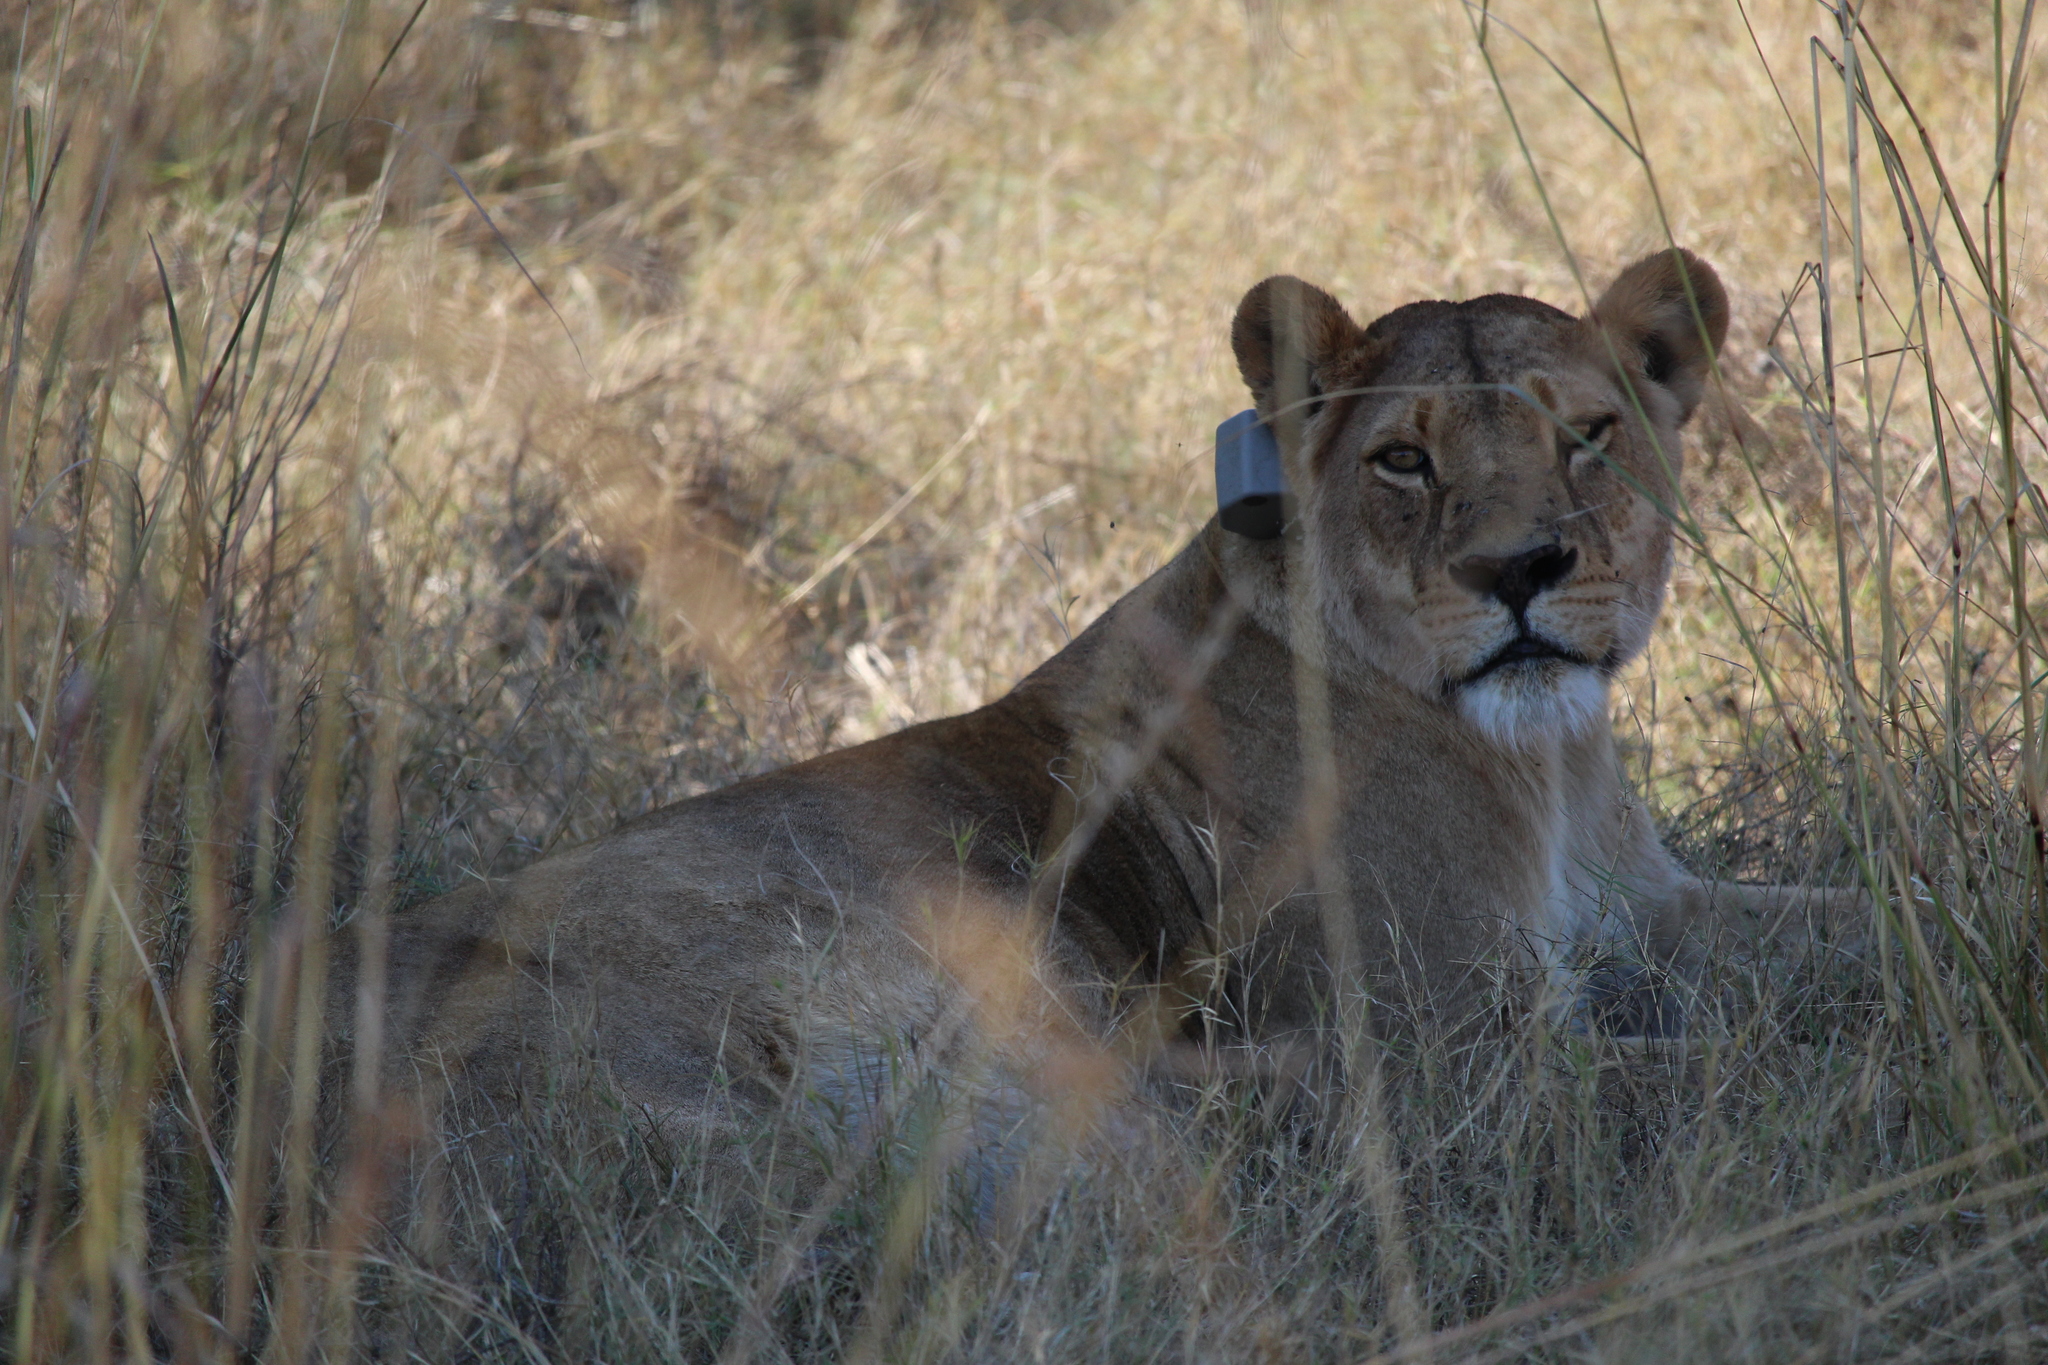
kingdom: Animalia
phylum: Chordata
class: Mammalia
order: Carnivora
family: Felidae
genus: Panthera
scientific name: Panthera leo
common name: Lion
